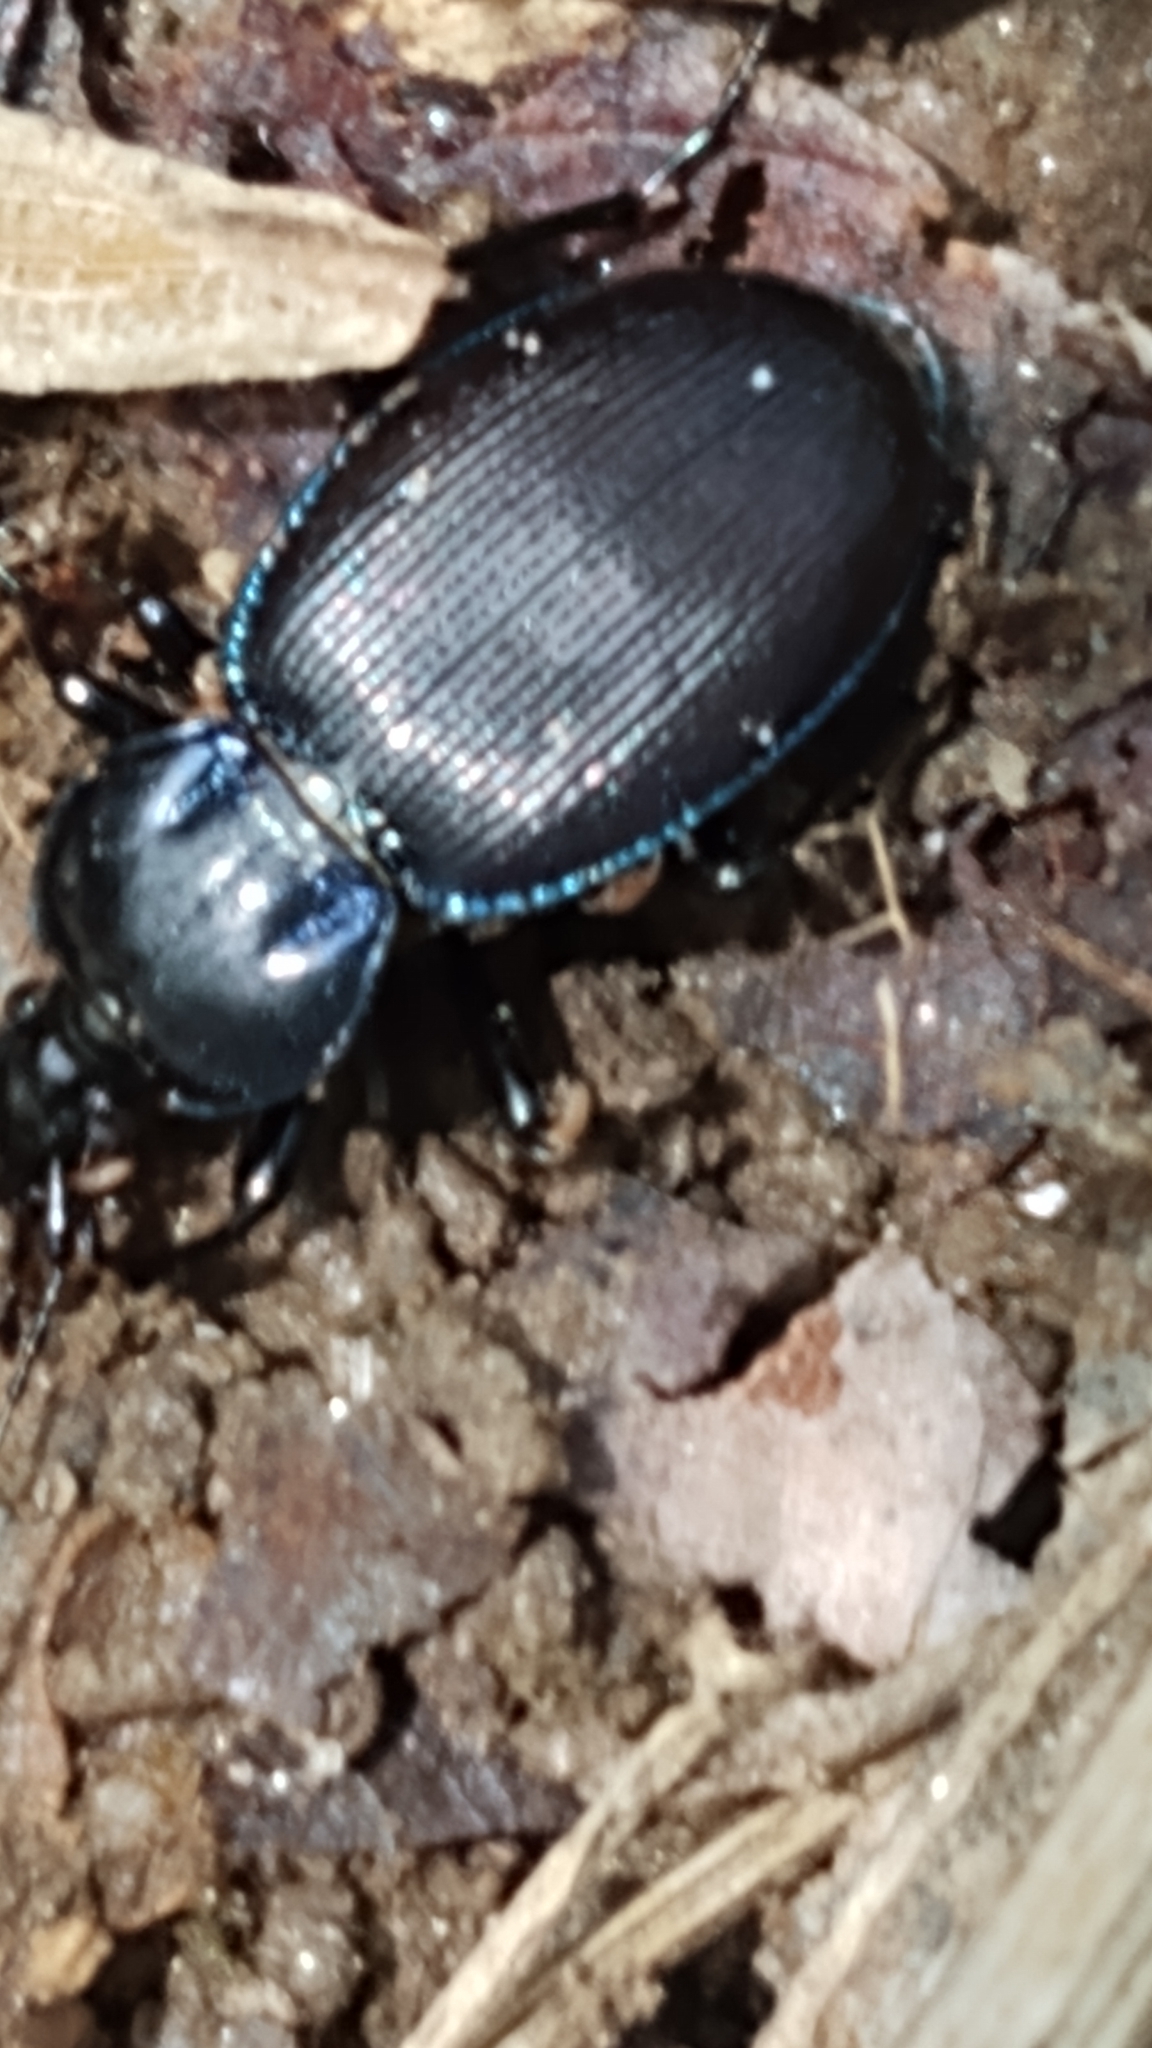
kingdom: Animalia
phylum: Arthropoda
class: Insecta
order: Coleoptera
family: Carabidae
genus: Sphaeroderus
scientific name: Sphaeroderus stenostomus
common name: Small snail-eating ground beetle
